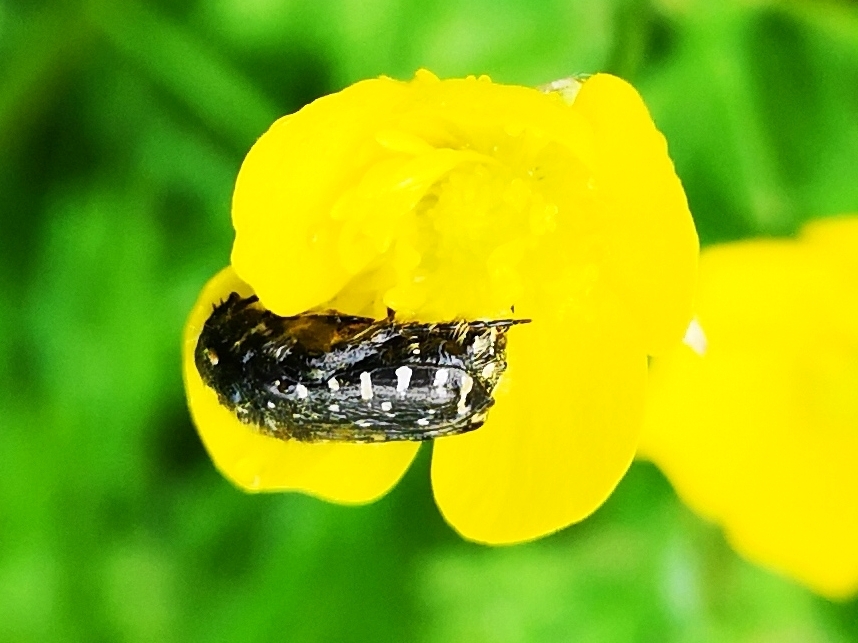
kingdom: Animalia
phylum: Arthropoda
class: Insecta
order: Coleoptera
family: Scarabaeidae
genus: Oxythyrea
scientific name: Oxythyrea funesta
